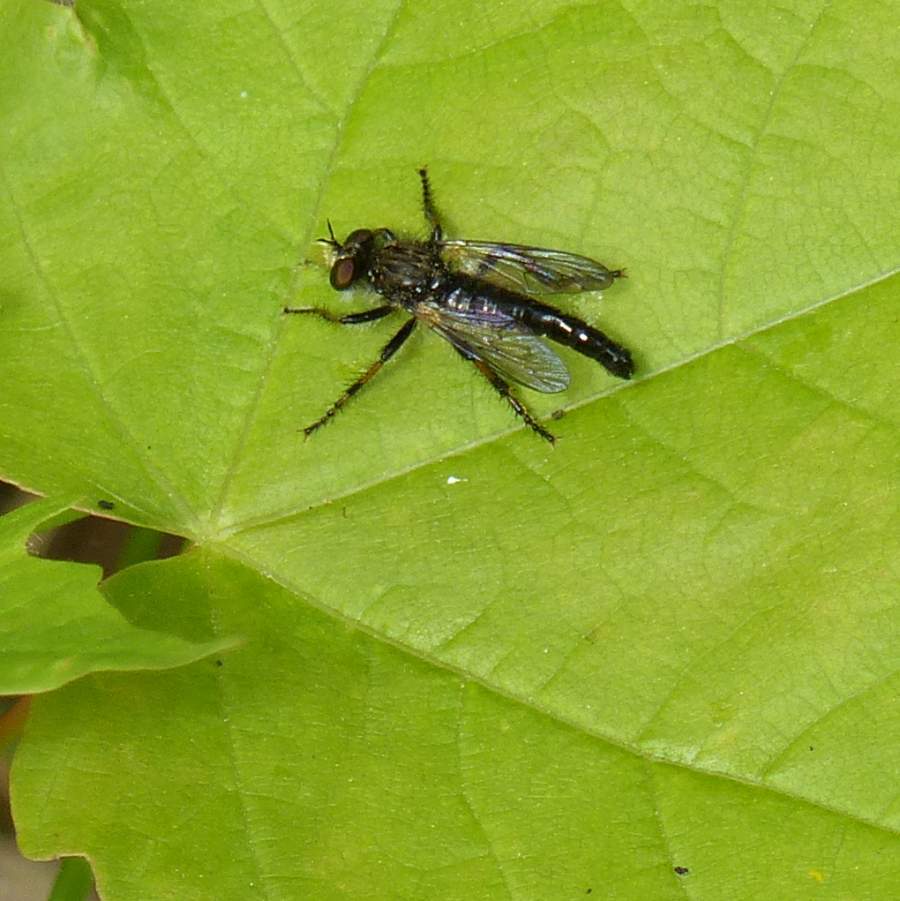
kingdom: Animalia
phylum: Arthropoda
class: Insecta
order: Diptera
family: Asilidae
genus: Cyrtopogon
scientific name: Cyrtopogon falto
